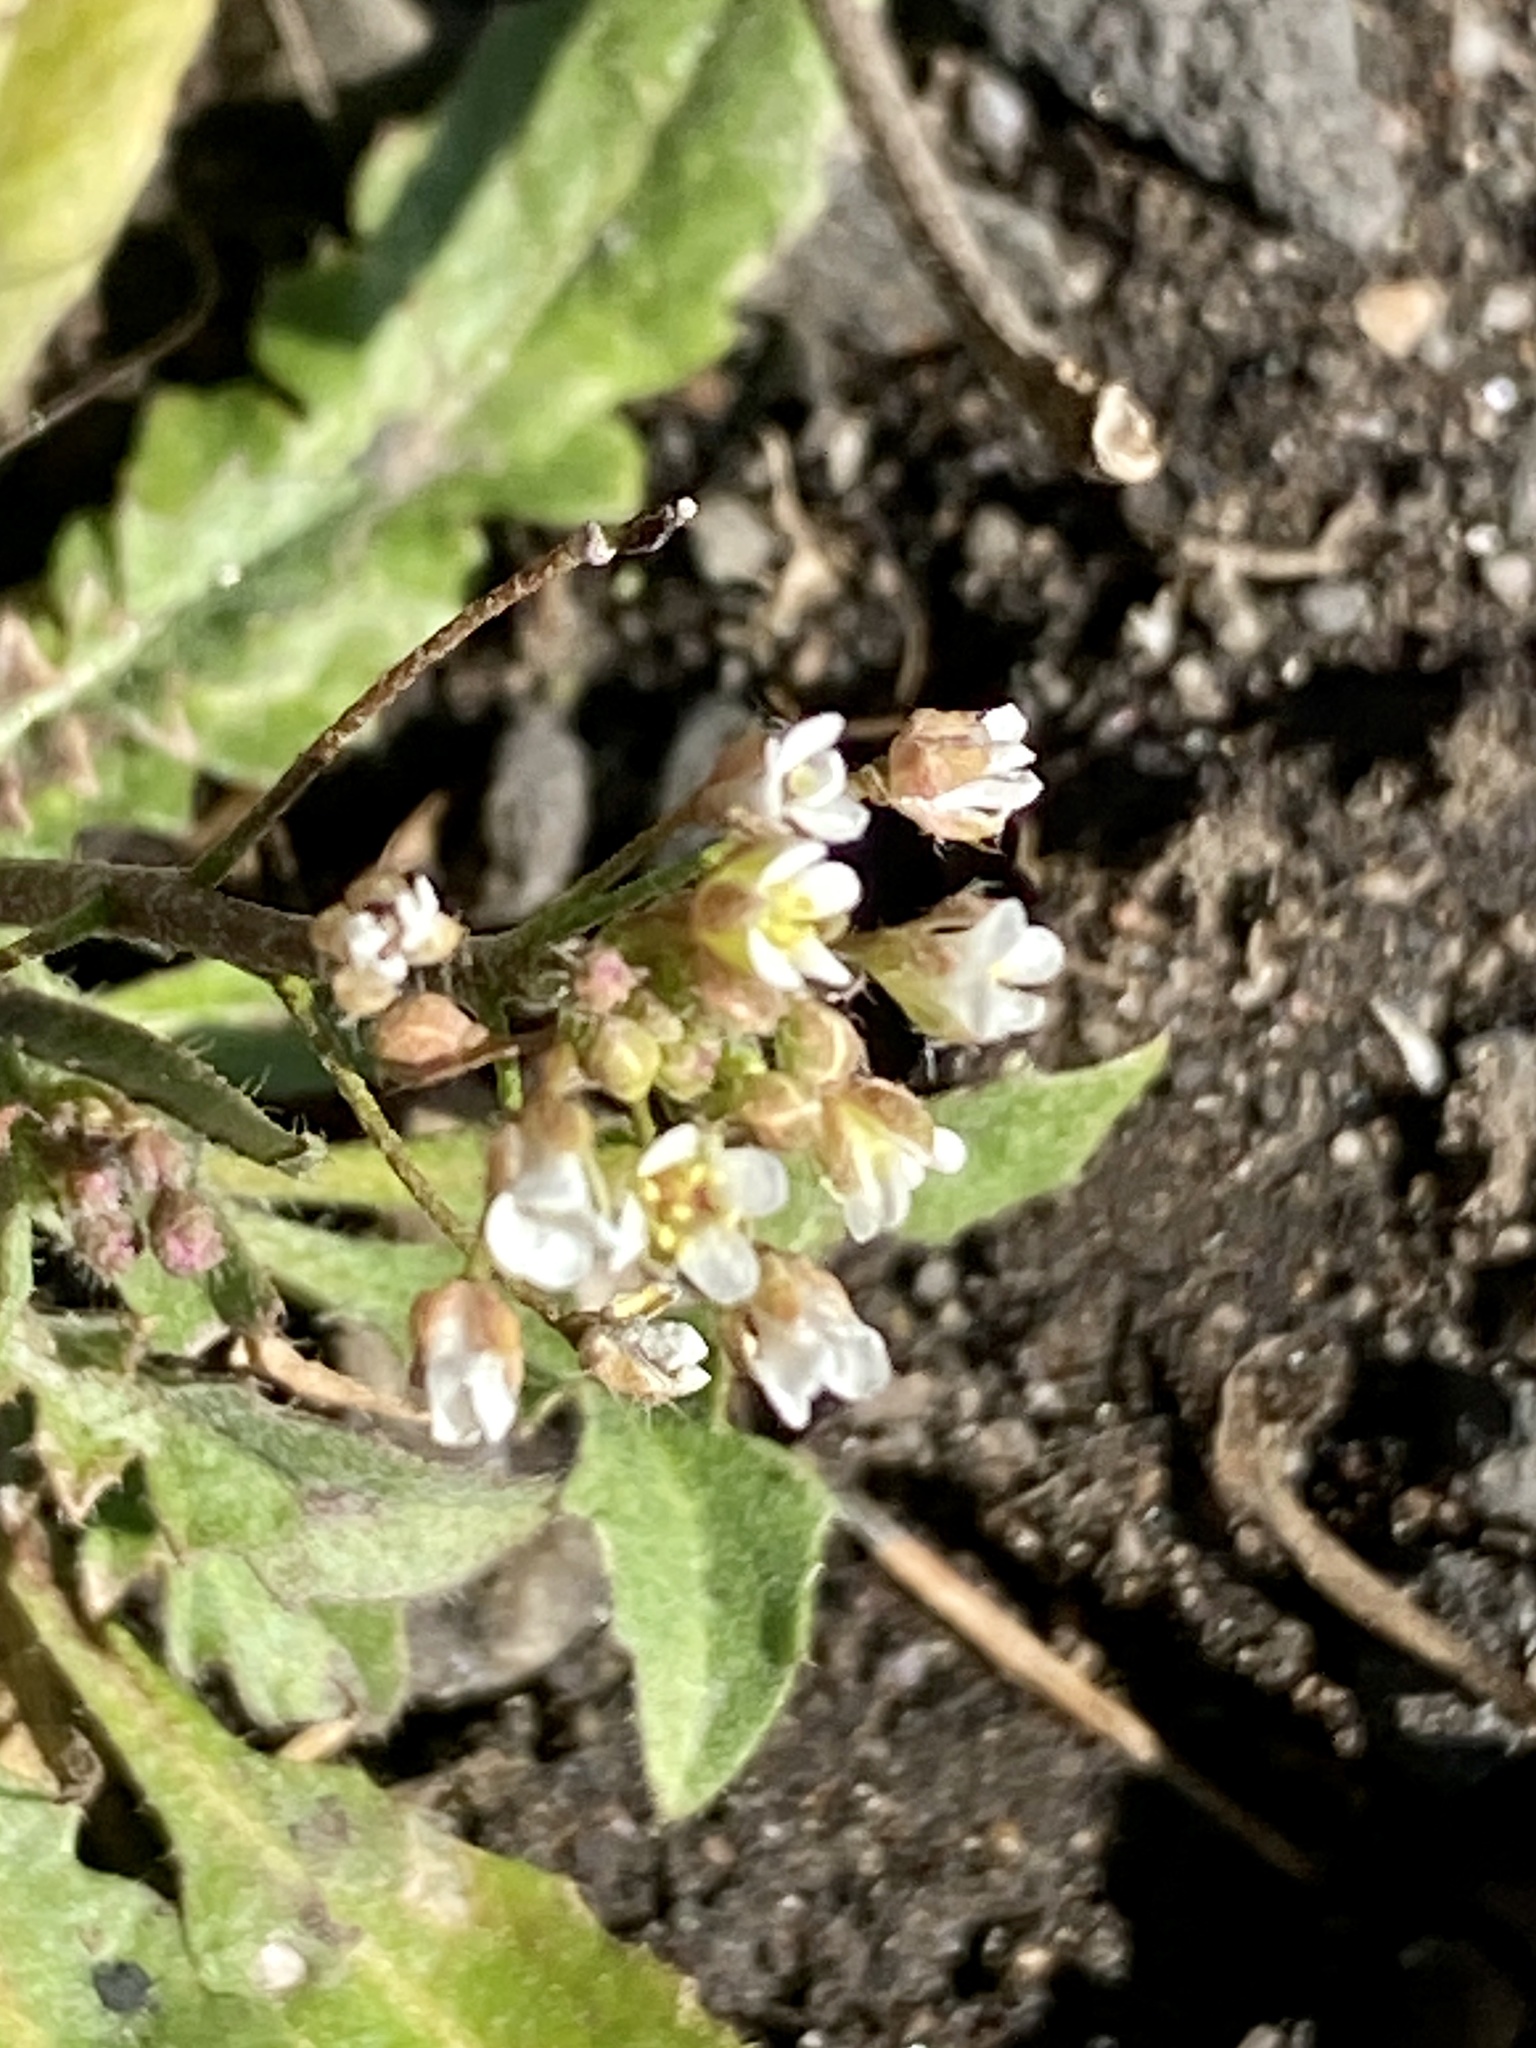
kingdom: Plantae
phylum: Tracheophyta
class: Magnoliopsida
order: Brassicales
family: Brassicaceae
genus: Capsella
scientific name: Capsella bursa-pastoris
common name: Shepherd's purse
